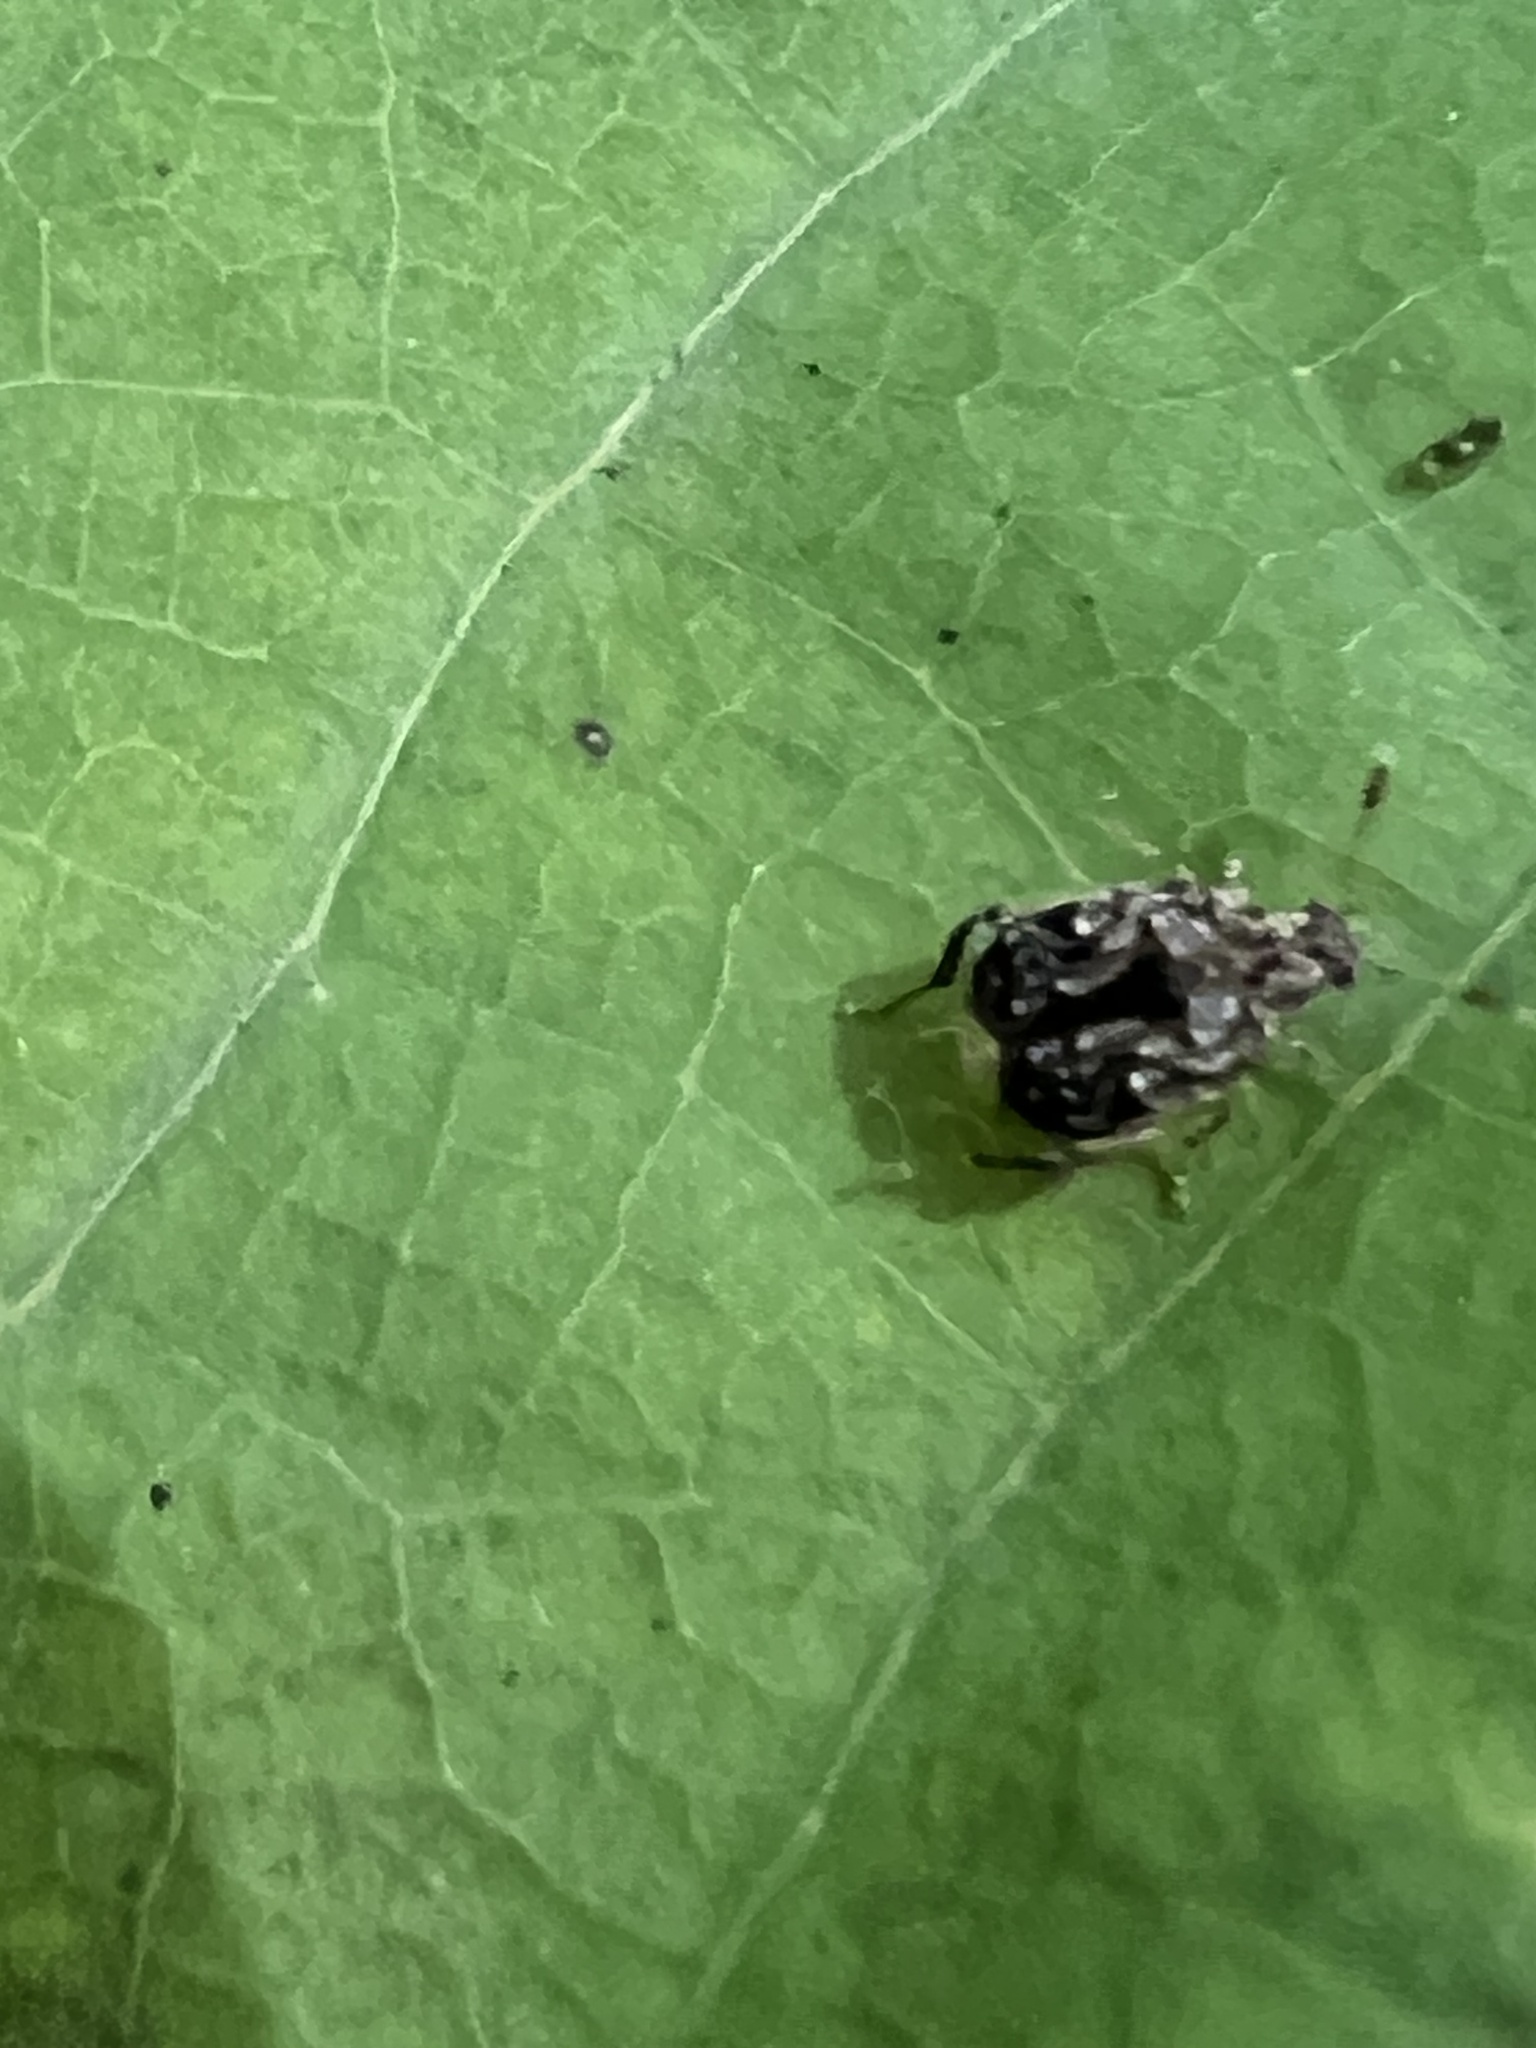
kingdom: Animalia
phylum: Arthropoda
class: Insecta
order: Coleoptera
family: Chrysomelidae
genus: Gibbobruchus
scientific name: Gibbobruchus mimus
